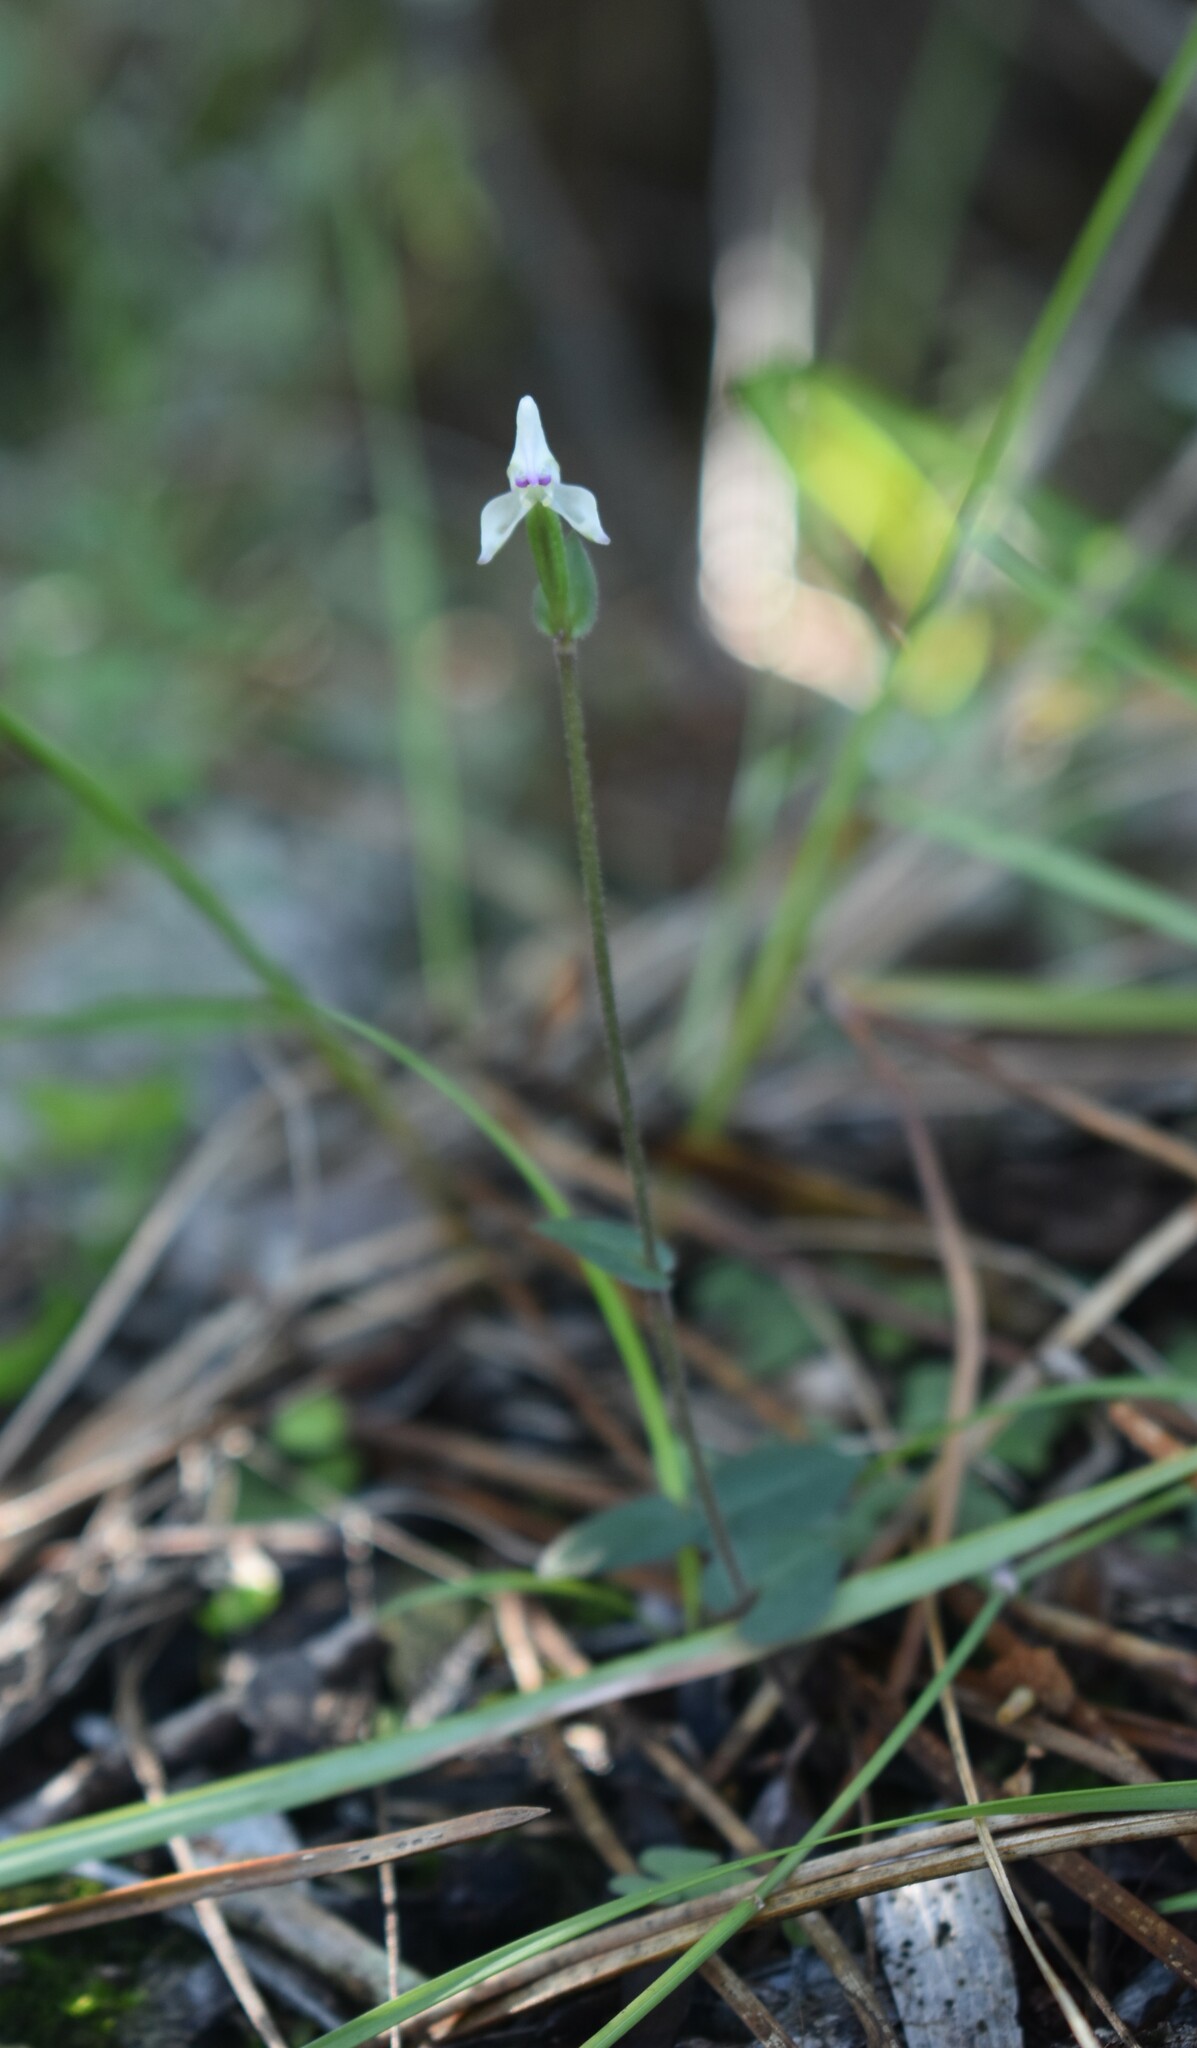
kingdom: Plantae
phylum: Tracheophyta
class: Liliopsida
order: Asparagales
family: Orchidaceae
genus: Disperis
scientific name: Disperis macowanii
